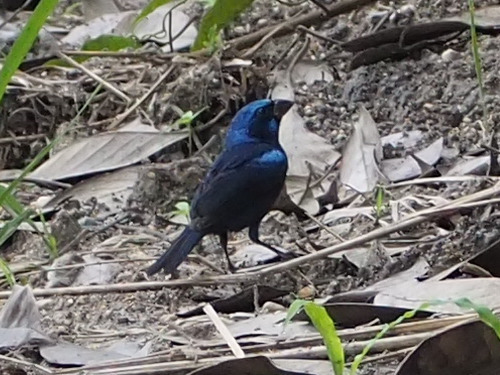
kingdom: Animalia
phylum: Chordata
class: Aves
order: Passeriformes
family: Cardinalidae
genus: Cyanocompsa
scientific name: Cyanocompsa parellina
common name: Blue bunting
